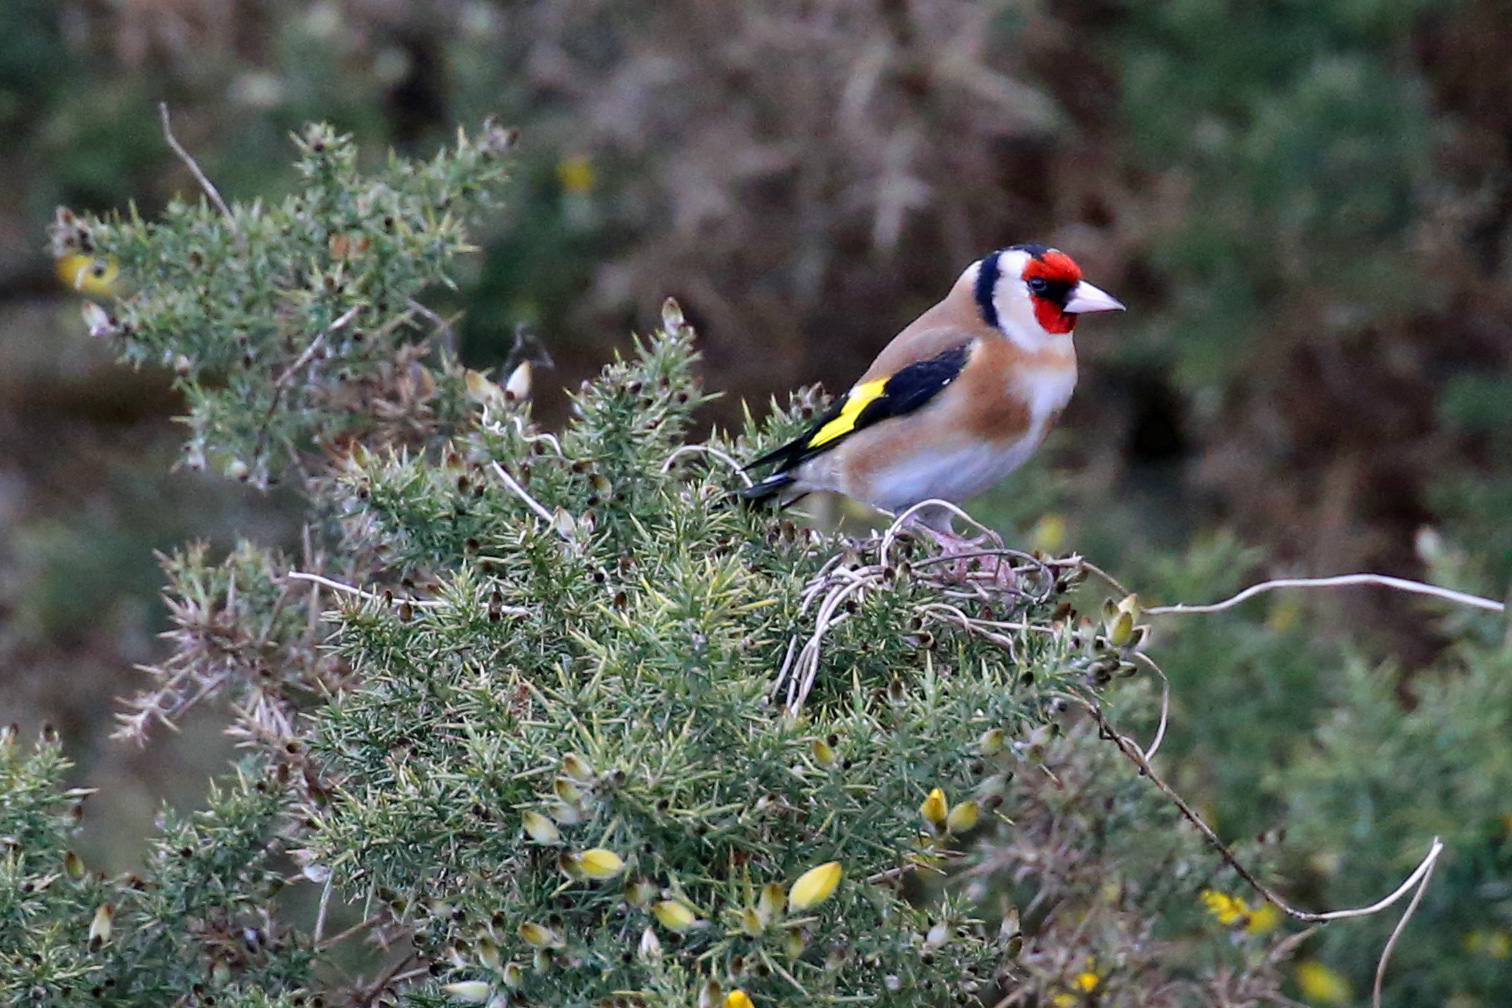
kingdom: Animalia
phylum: Chordata
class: Aves
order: Passeriformes
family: Fringillidae
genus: Carduelis
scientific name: Carduelis carduelis
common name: European goldfinch
